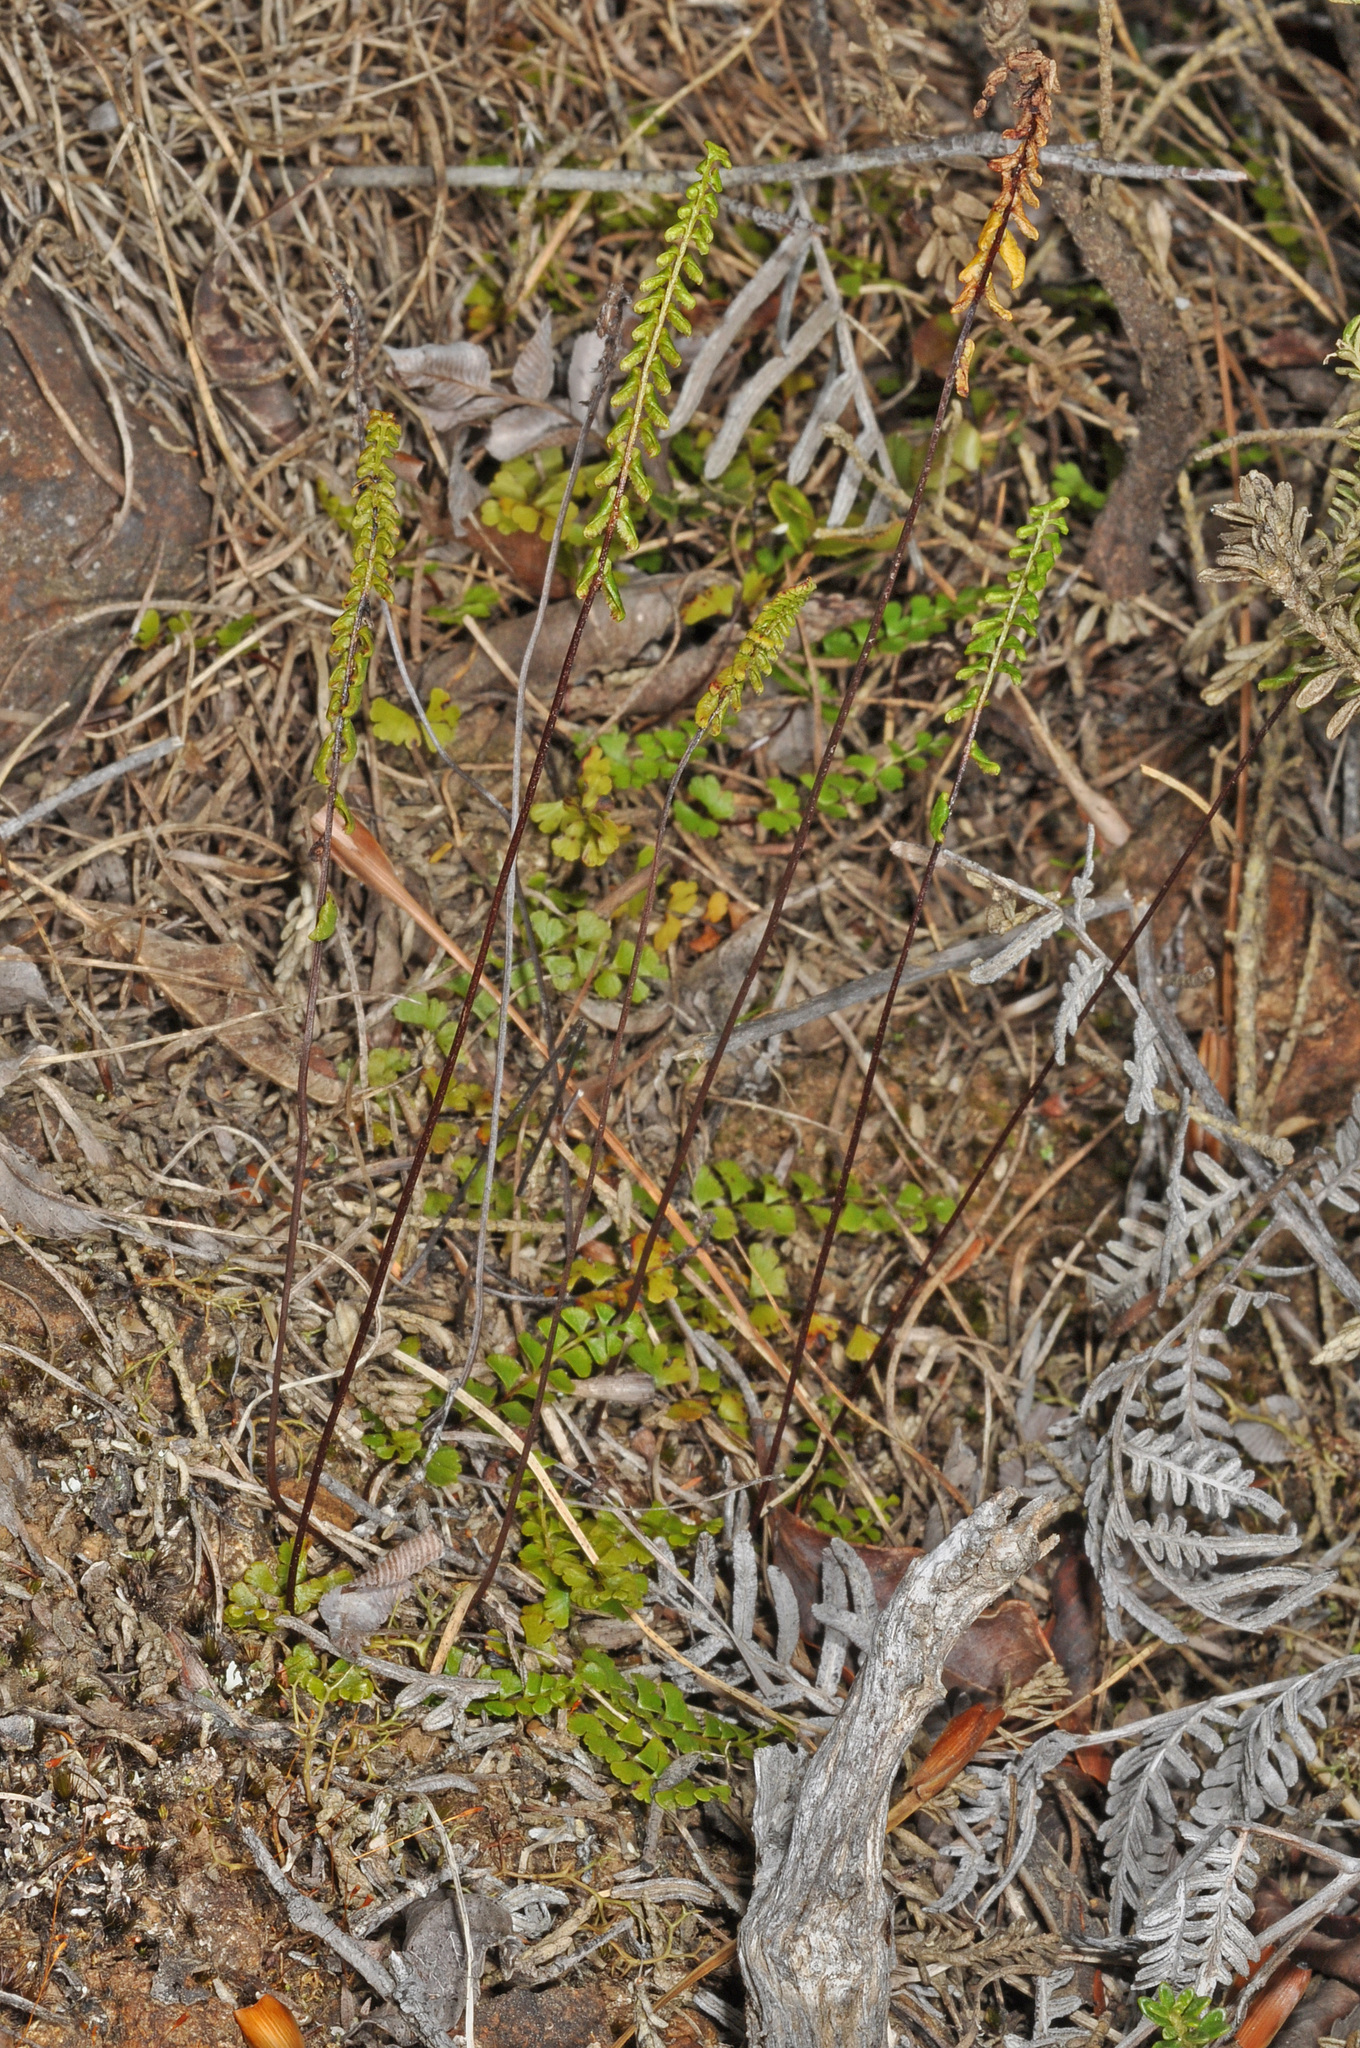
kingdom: Plantae
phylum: Tracheophyta
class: Polypodiopsida
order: Polypodiales
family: Lindsaeaceae
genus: Lindsaea
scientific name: Lindsaea linearis
